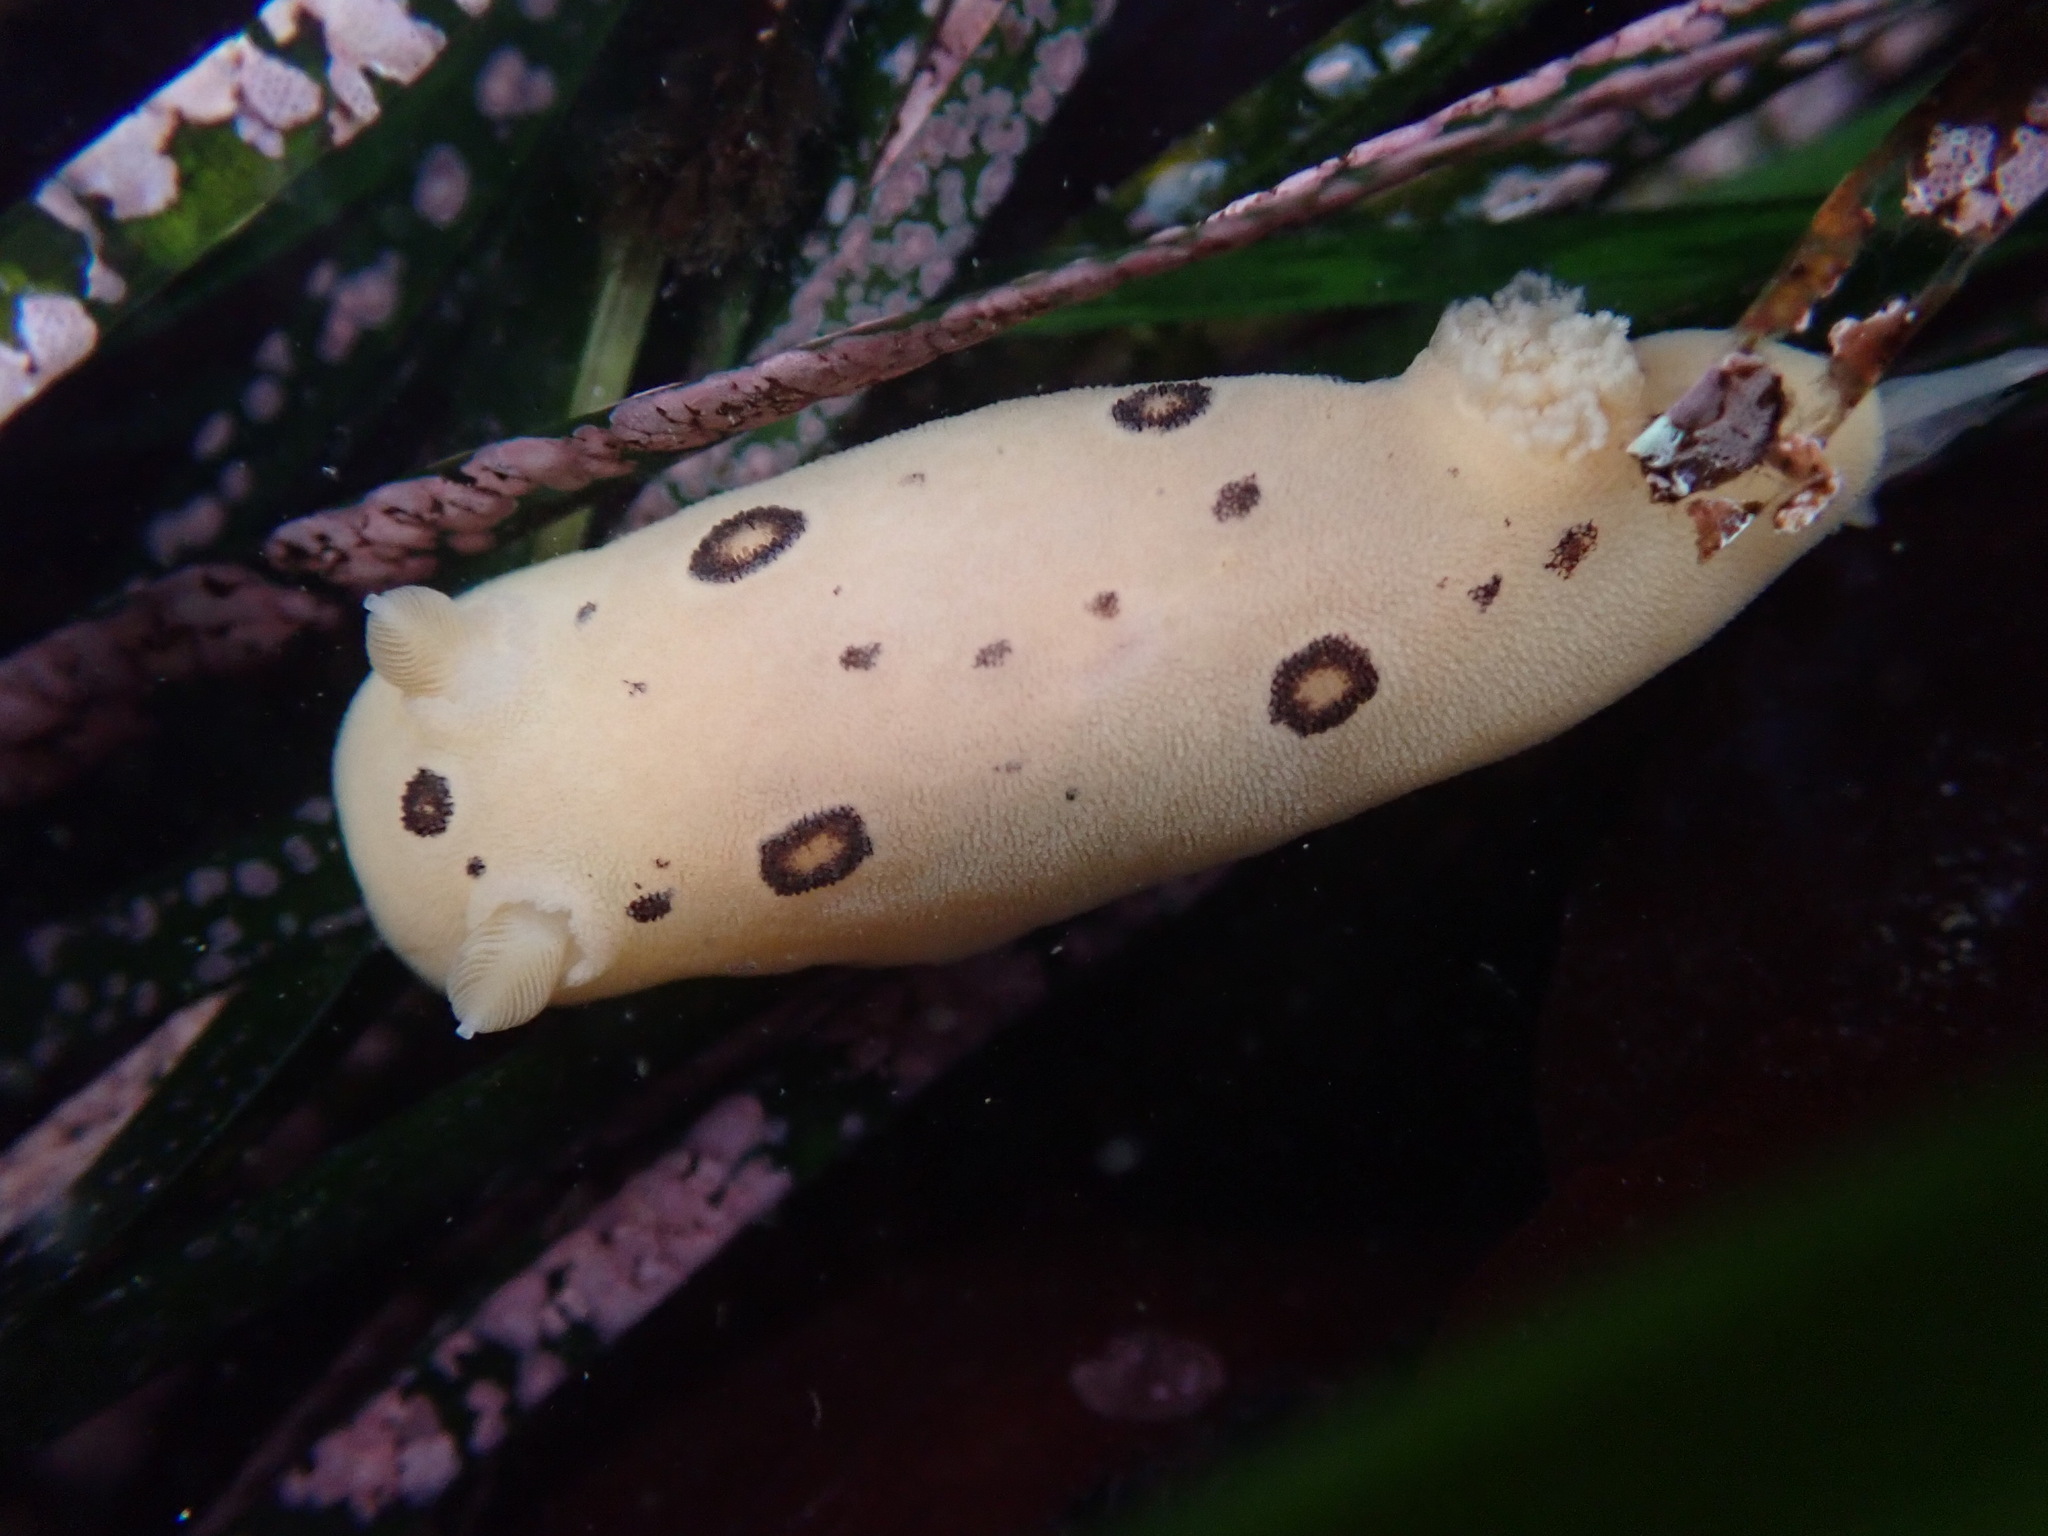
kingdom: Animalia
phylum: Mollusca
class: Gastropoda
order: Nudibranchia
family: Discodorididae
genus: Diaulula
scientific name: Diaulula sandiegensis
